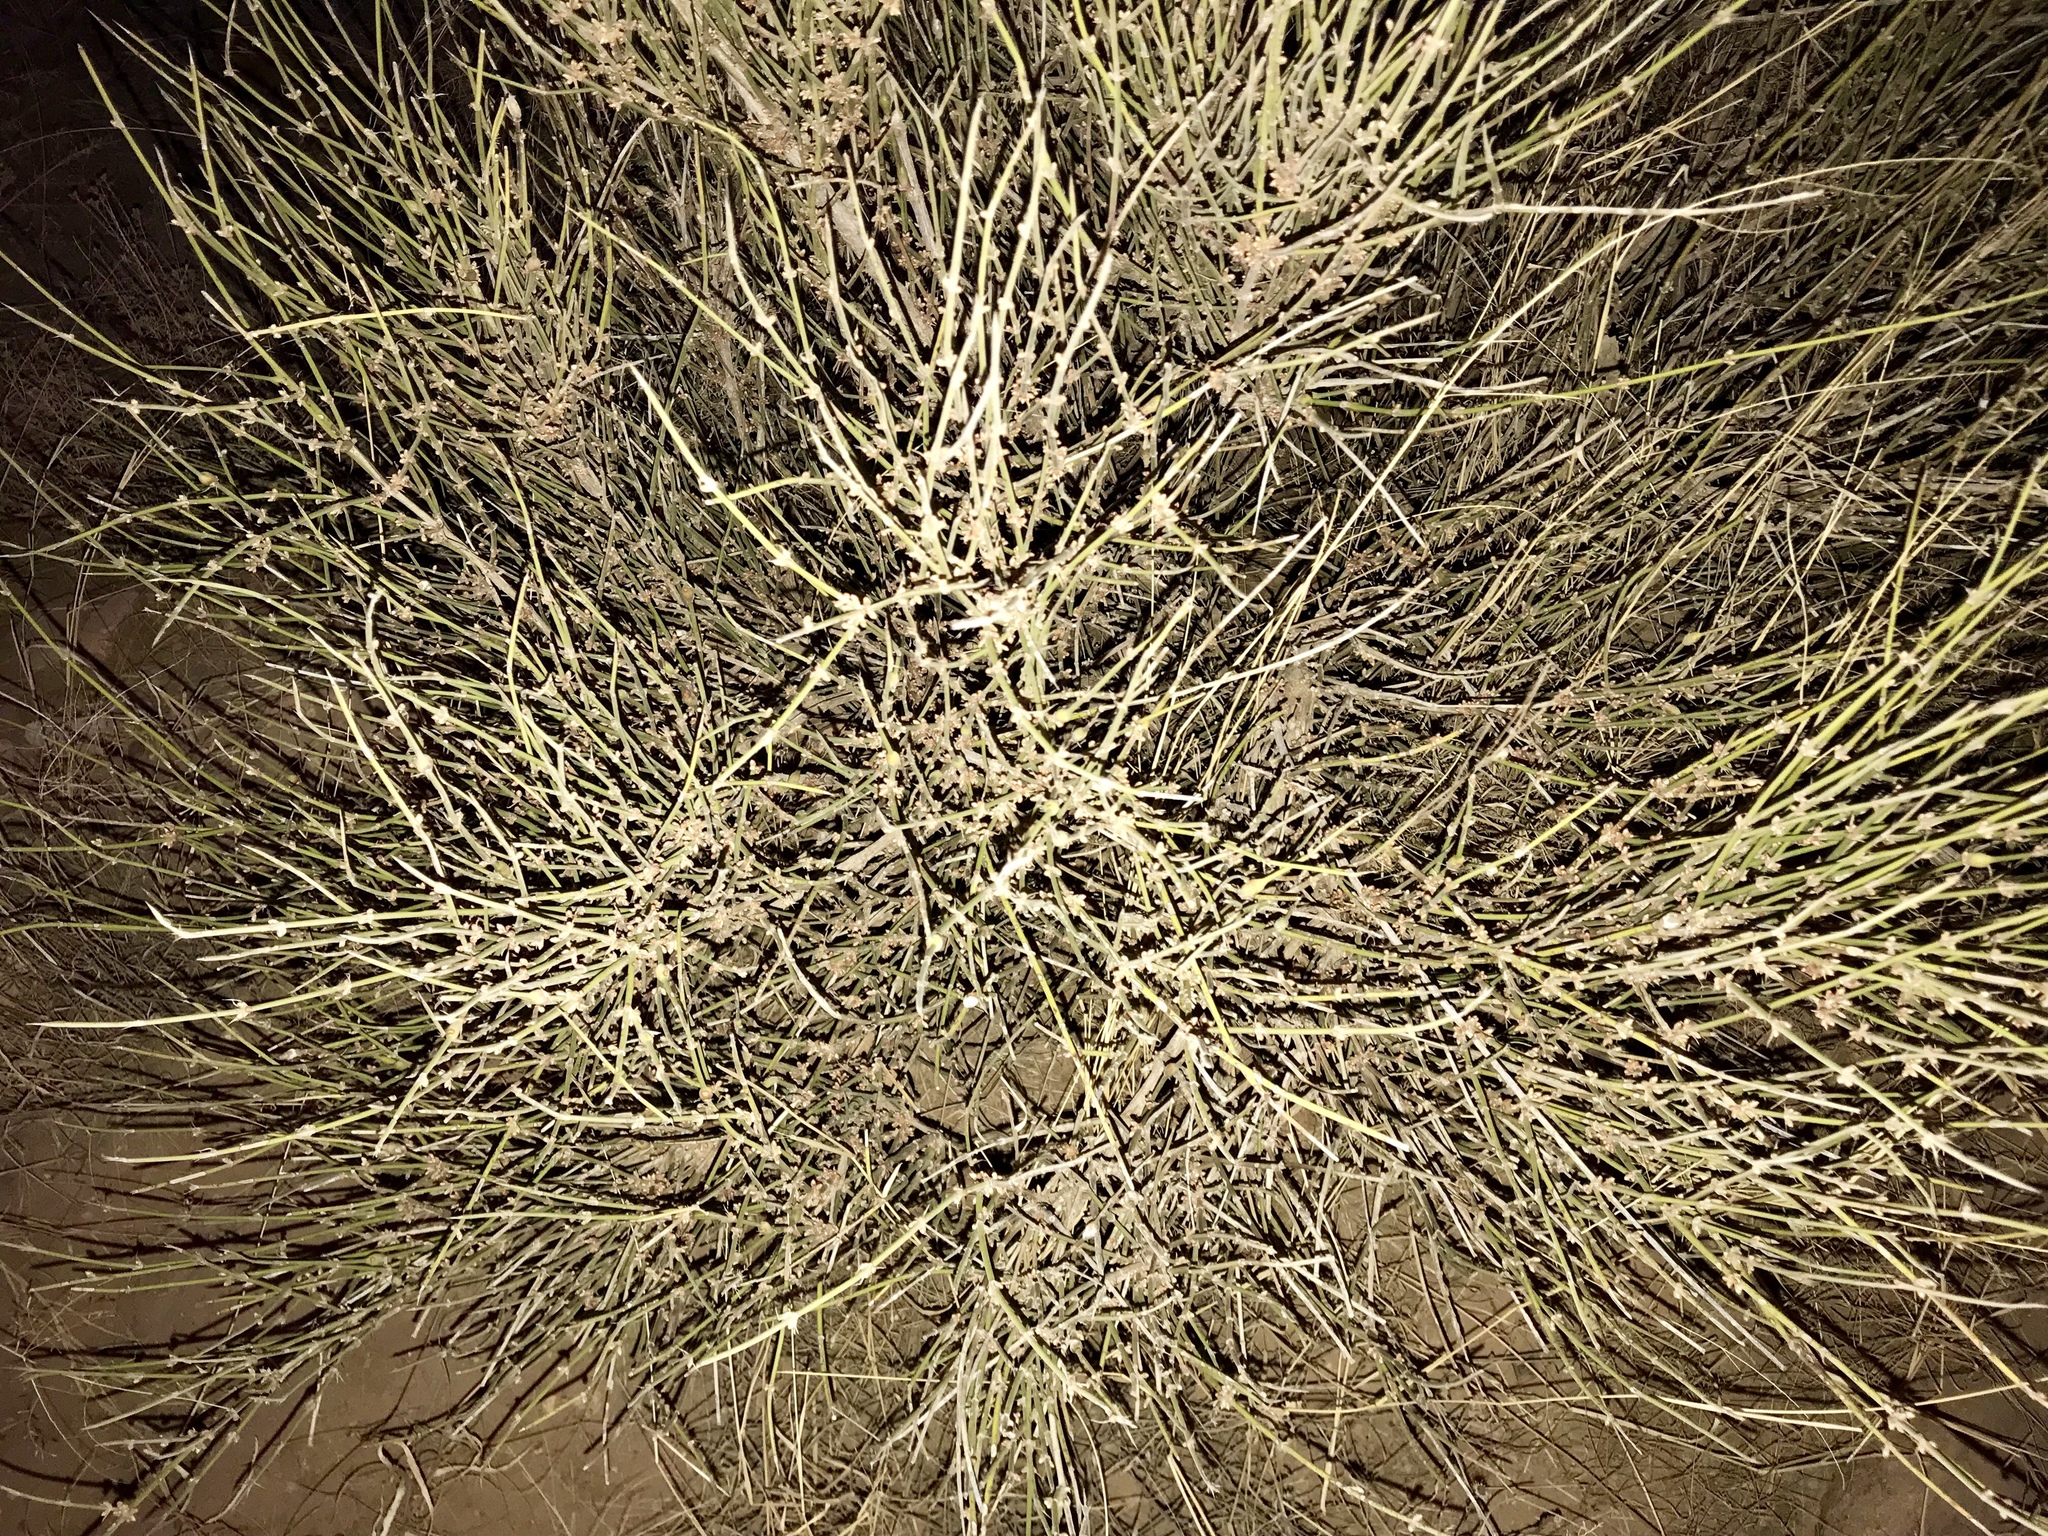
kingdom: Plantae
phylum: Tracheophyta
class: Gnetopsida
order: Ephedrales
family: Ephedraceae
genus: Ephedra
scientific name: Ephedra trifurca
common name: Mexican-tea
